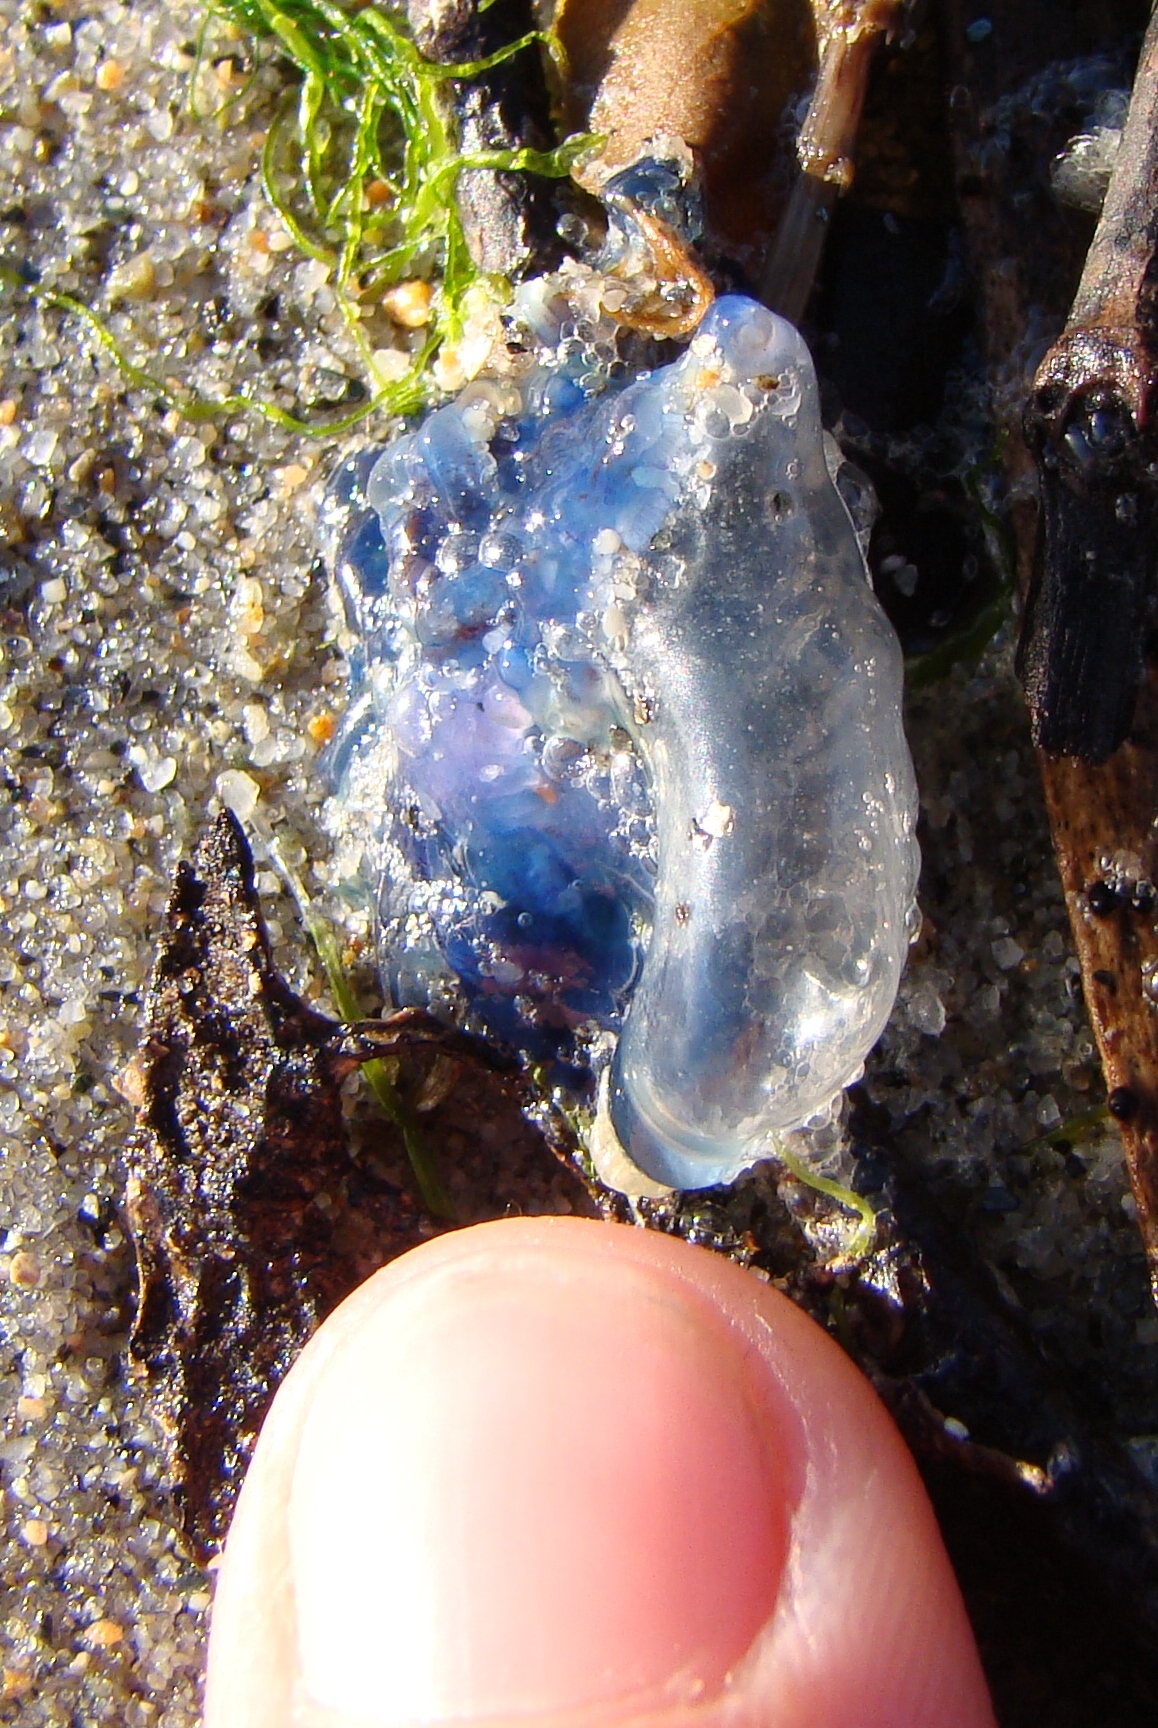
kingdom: Animalia
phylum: Cnidaria
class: Hydrozoa
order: Siphonophorae
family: Physaliidae
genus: Physalia
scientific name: Physalia physalis
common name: Portuguese man-of-war
